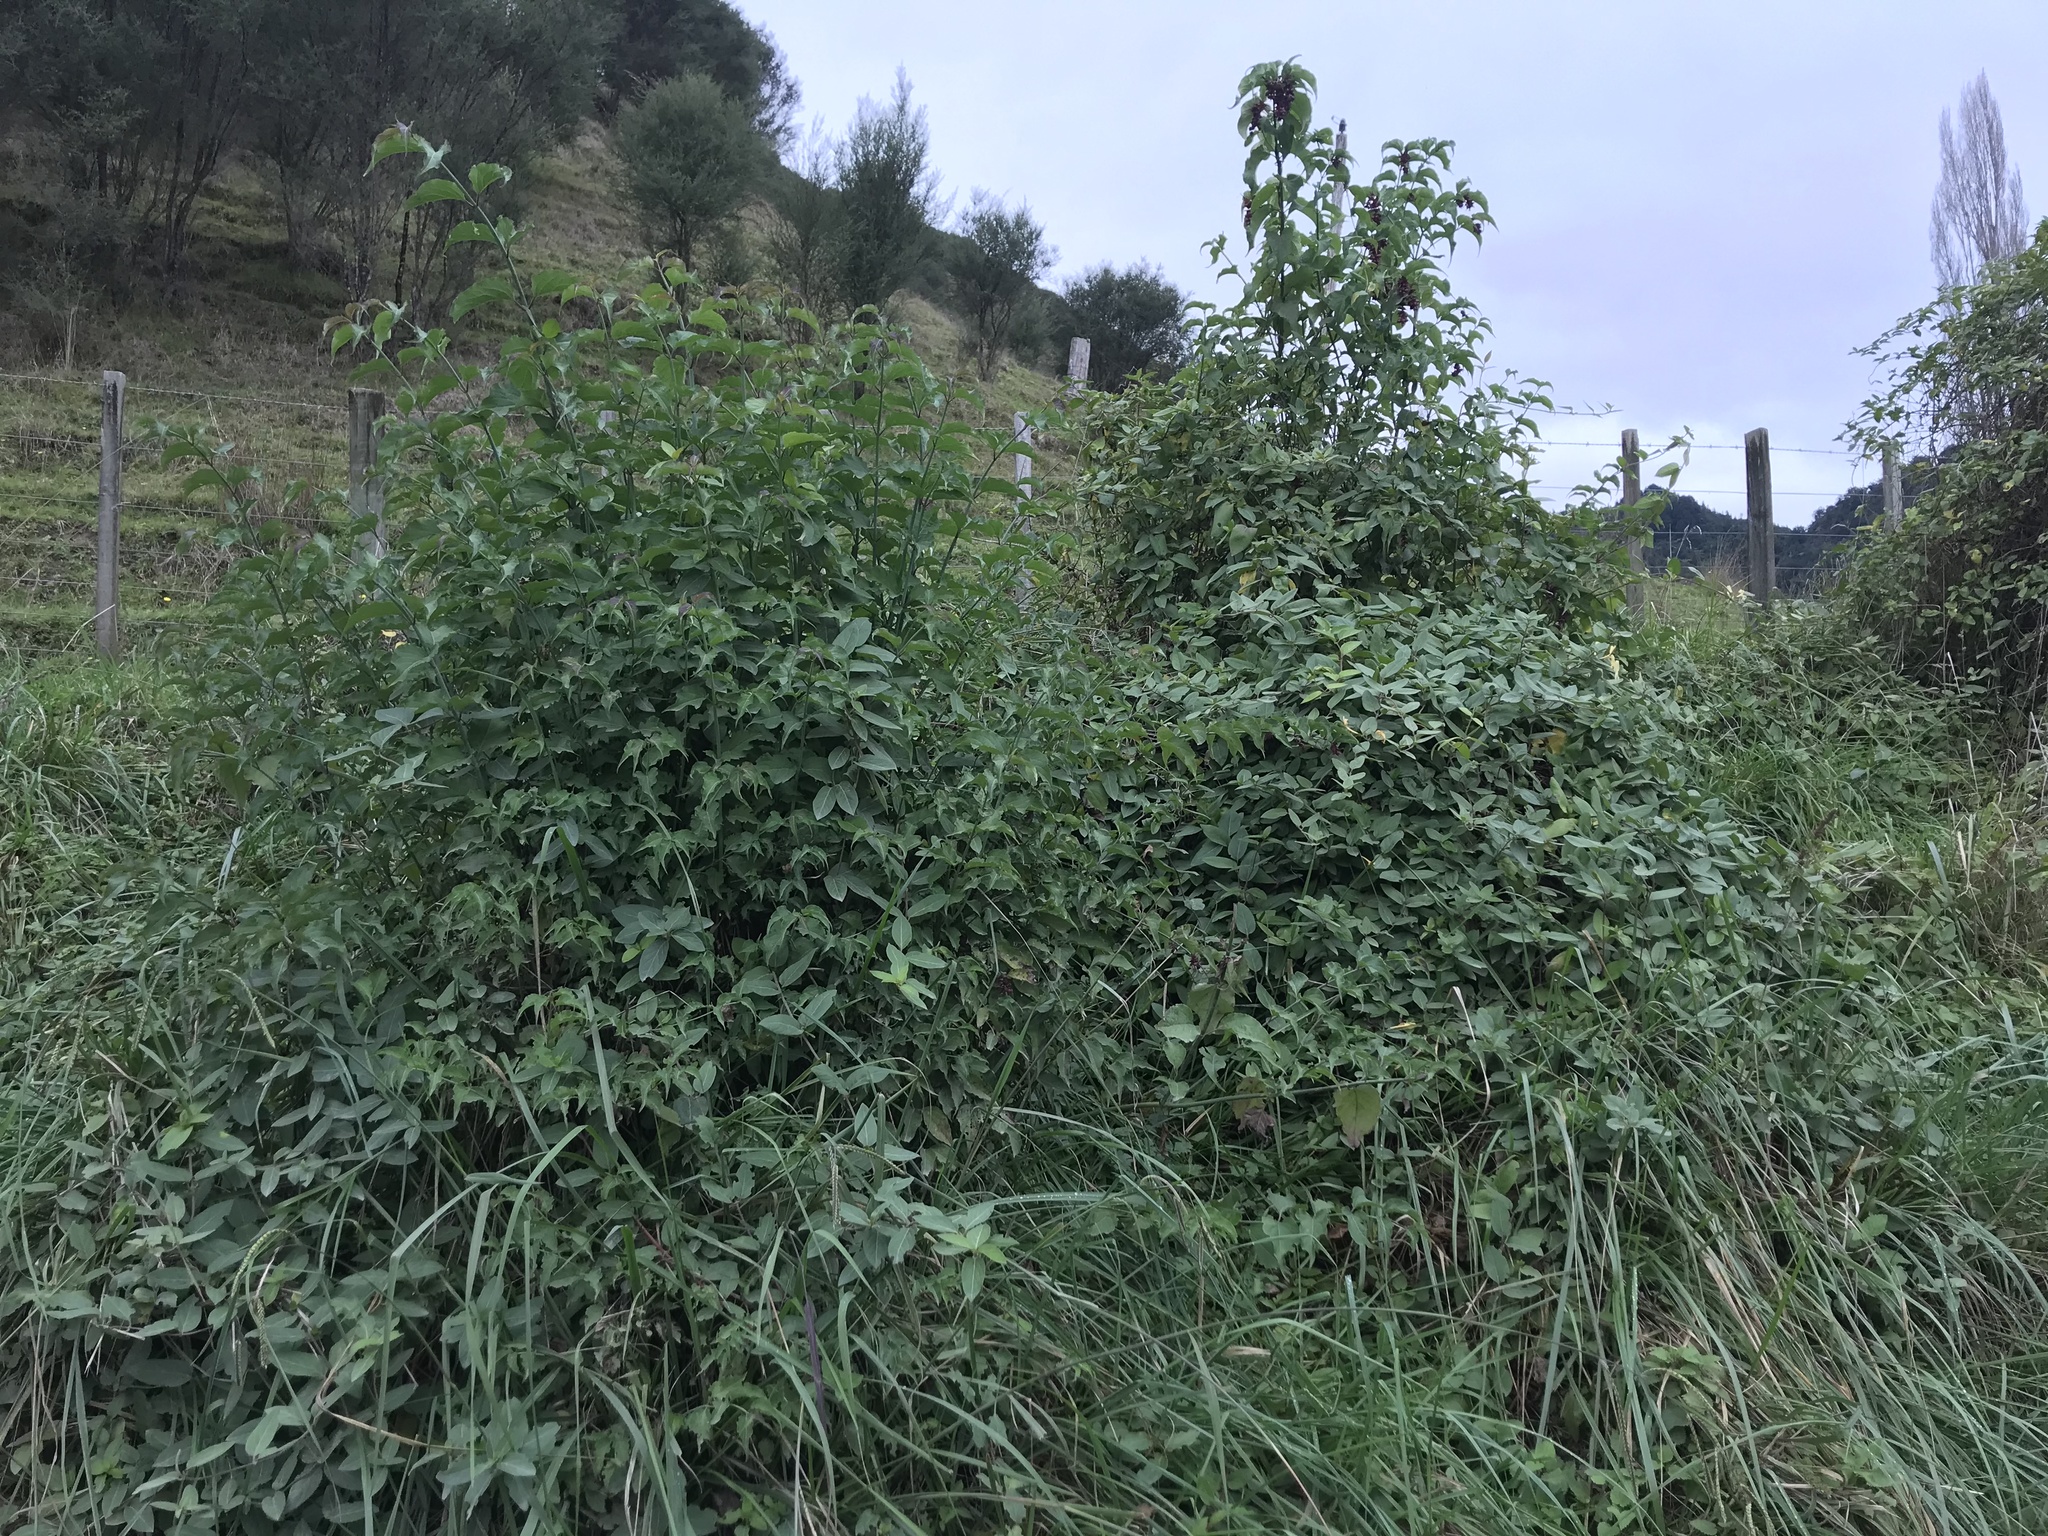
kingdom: Plantae
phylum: Tracheophyta
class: Magnoliopsida
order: Dipsacales
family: Caprifoliaceae
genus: Leycesteria
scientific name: Leycesteria formosa
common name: Himalayan honeysuckle
